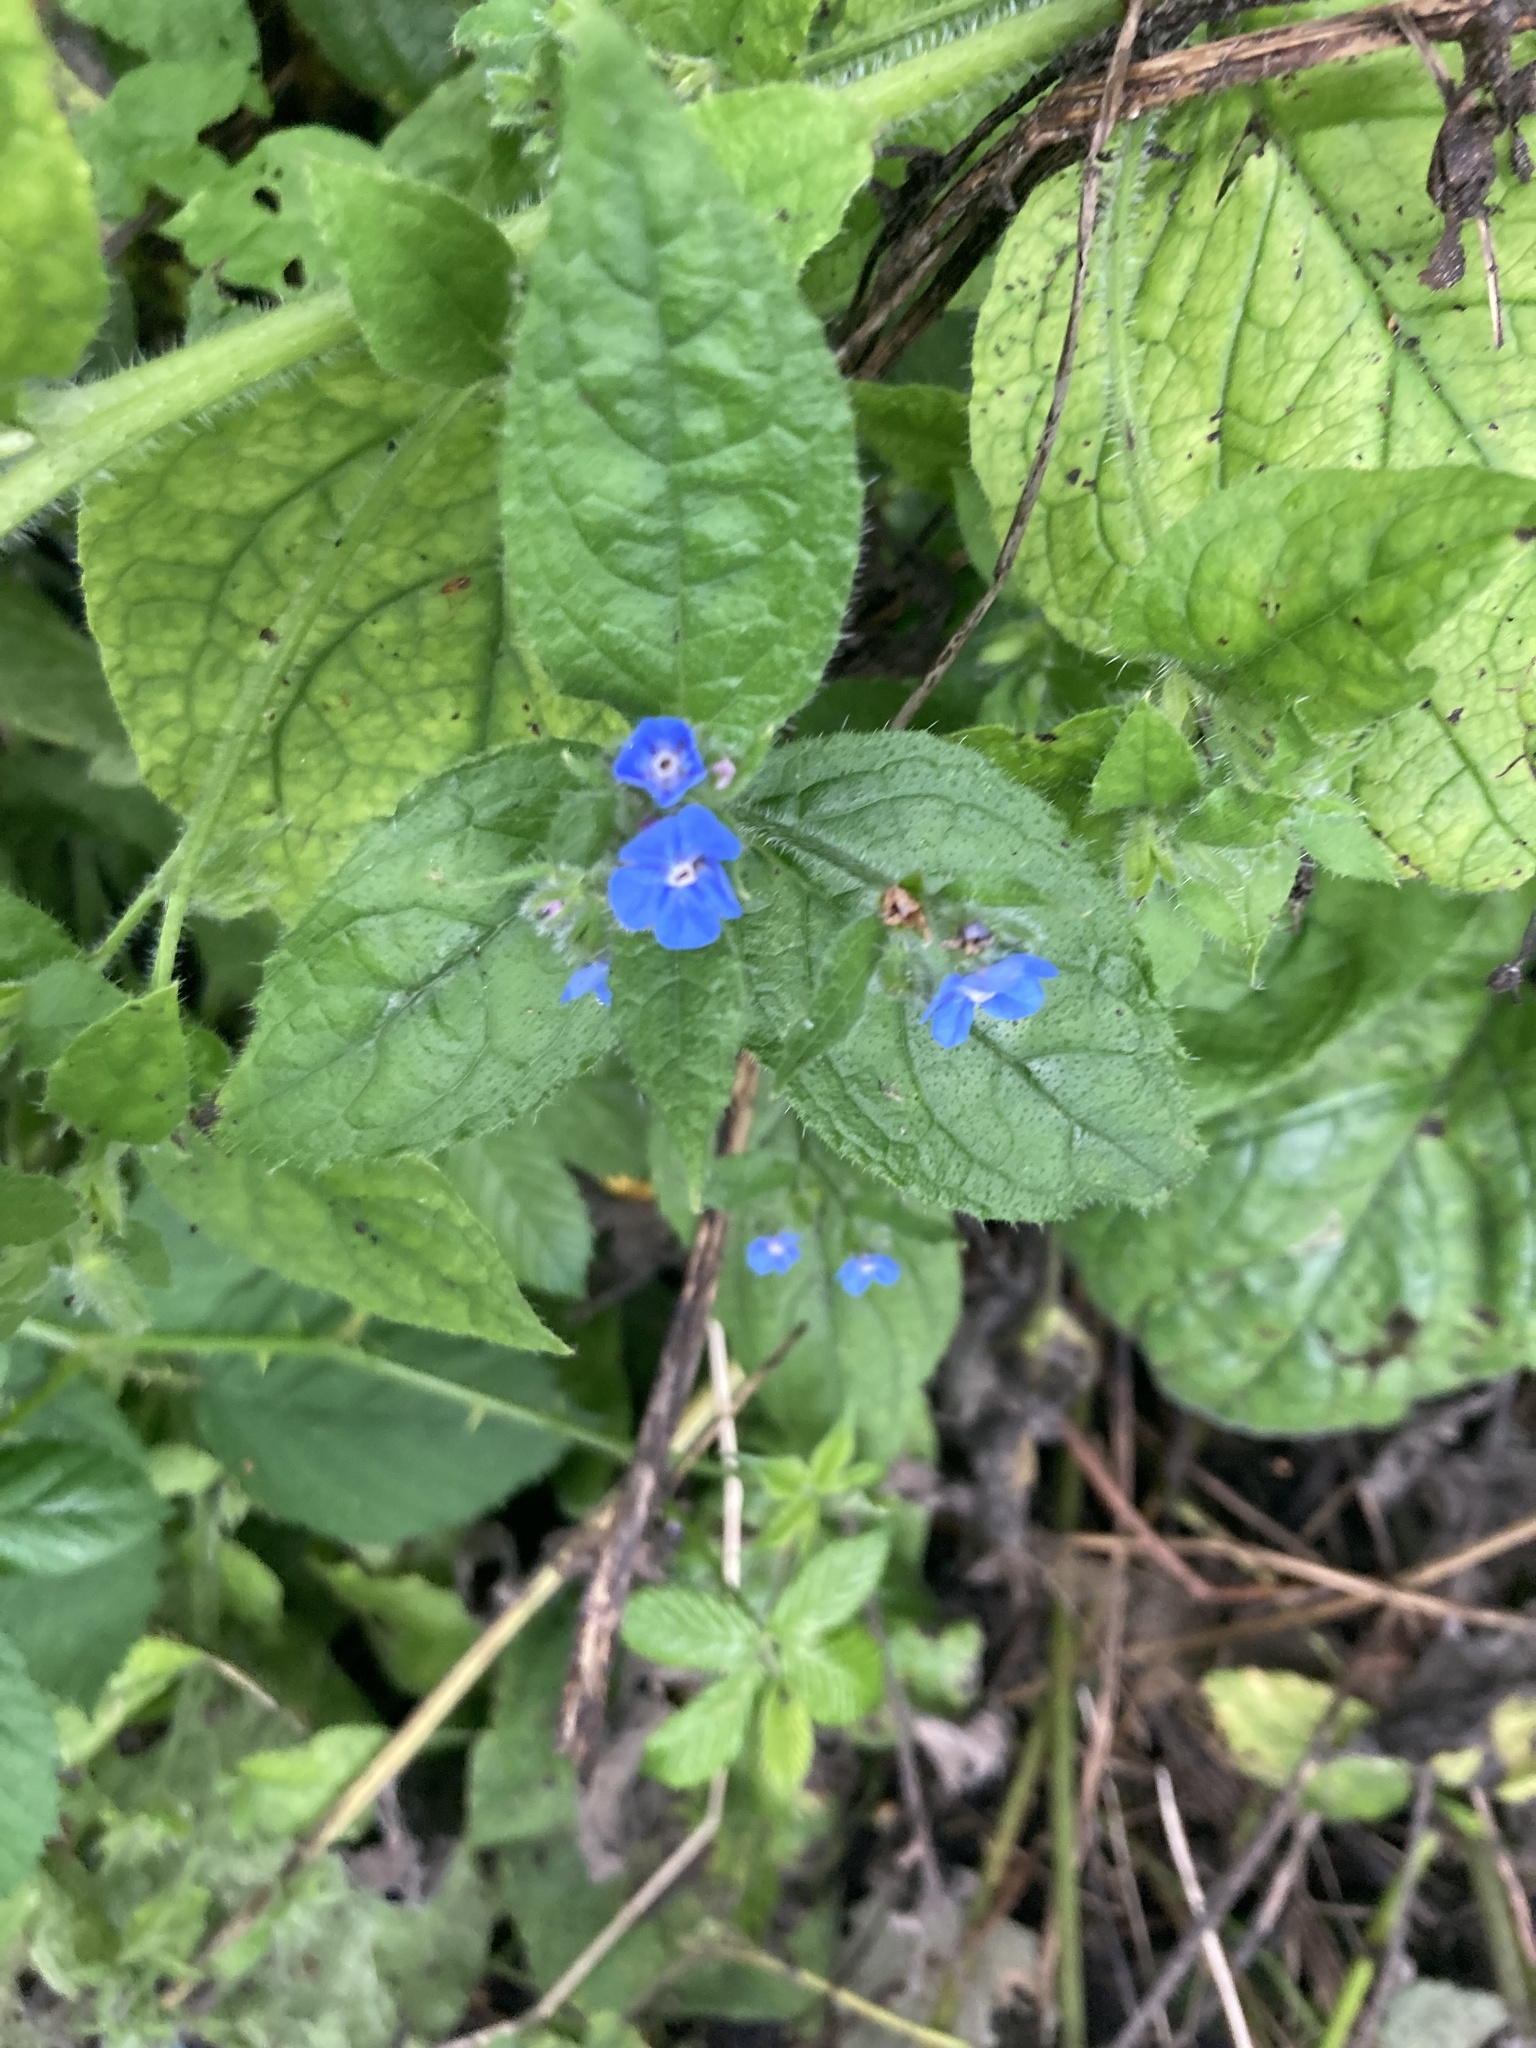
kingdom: Plantae
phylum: Tracheophyta
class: Magnoliopsida
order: Boraginales
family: Boraginaceae
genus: Pentaglottis
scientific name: Pentaglottis sempervirens
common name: Green alkanet
